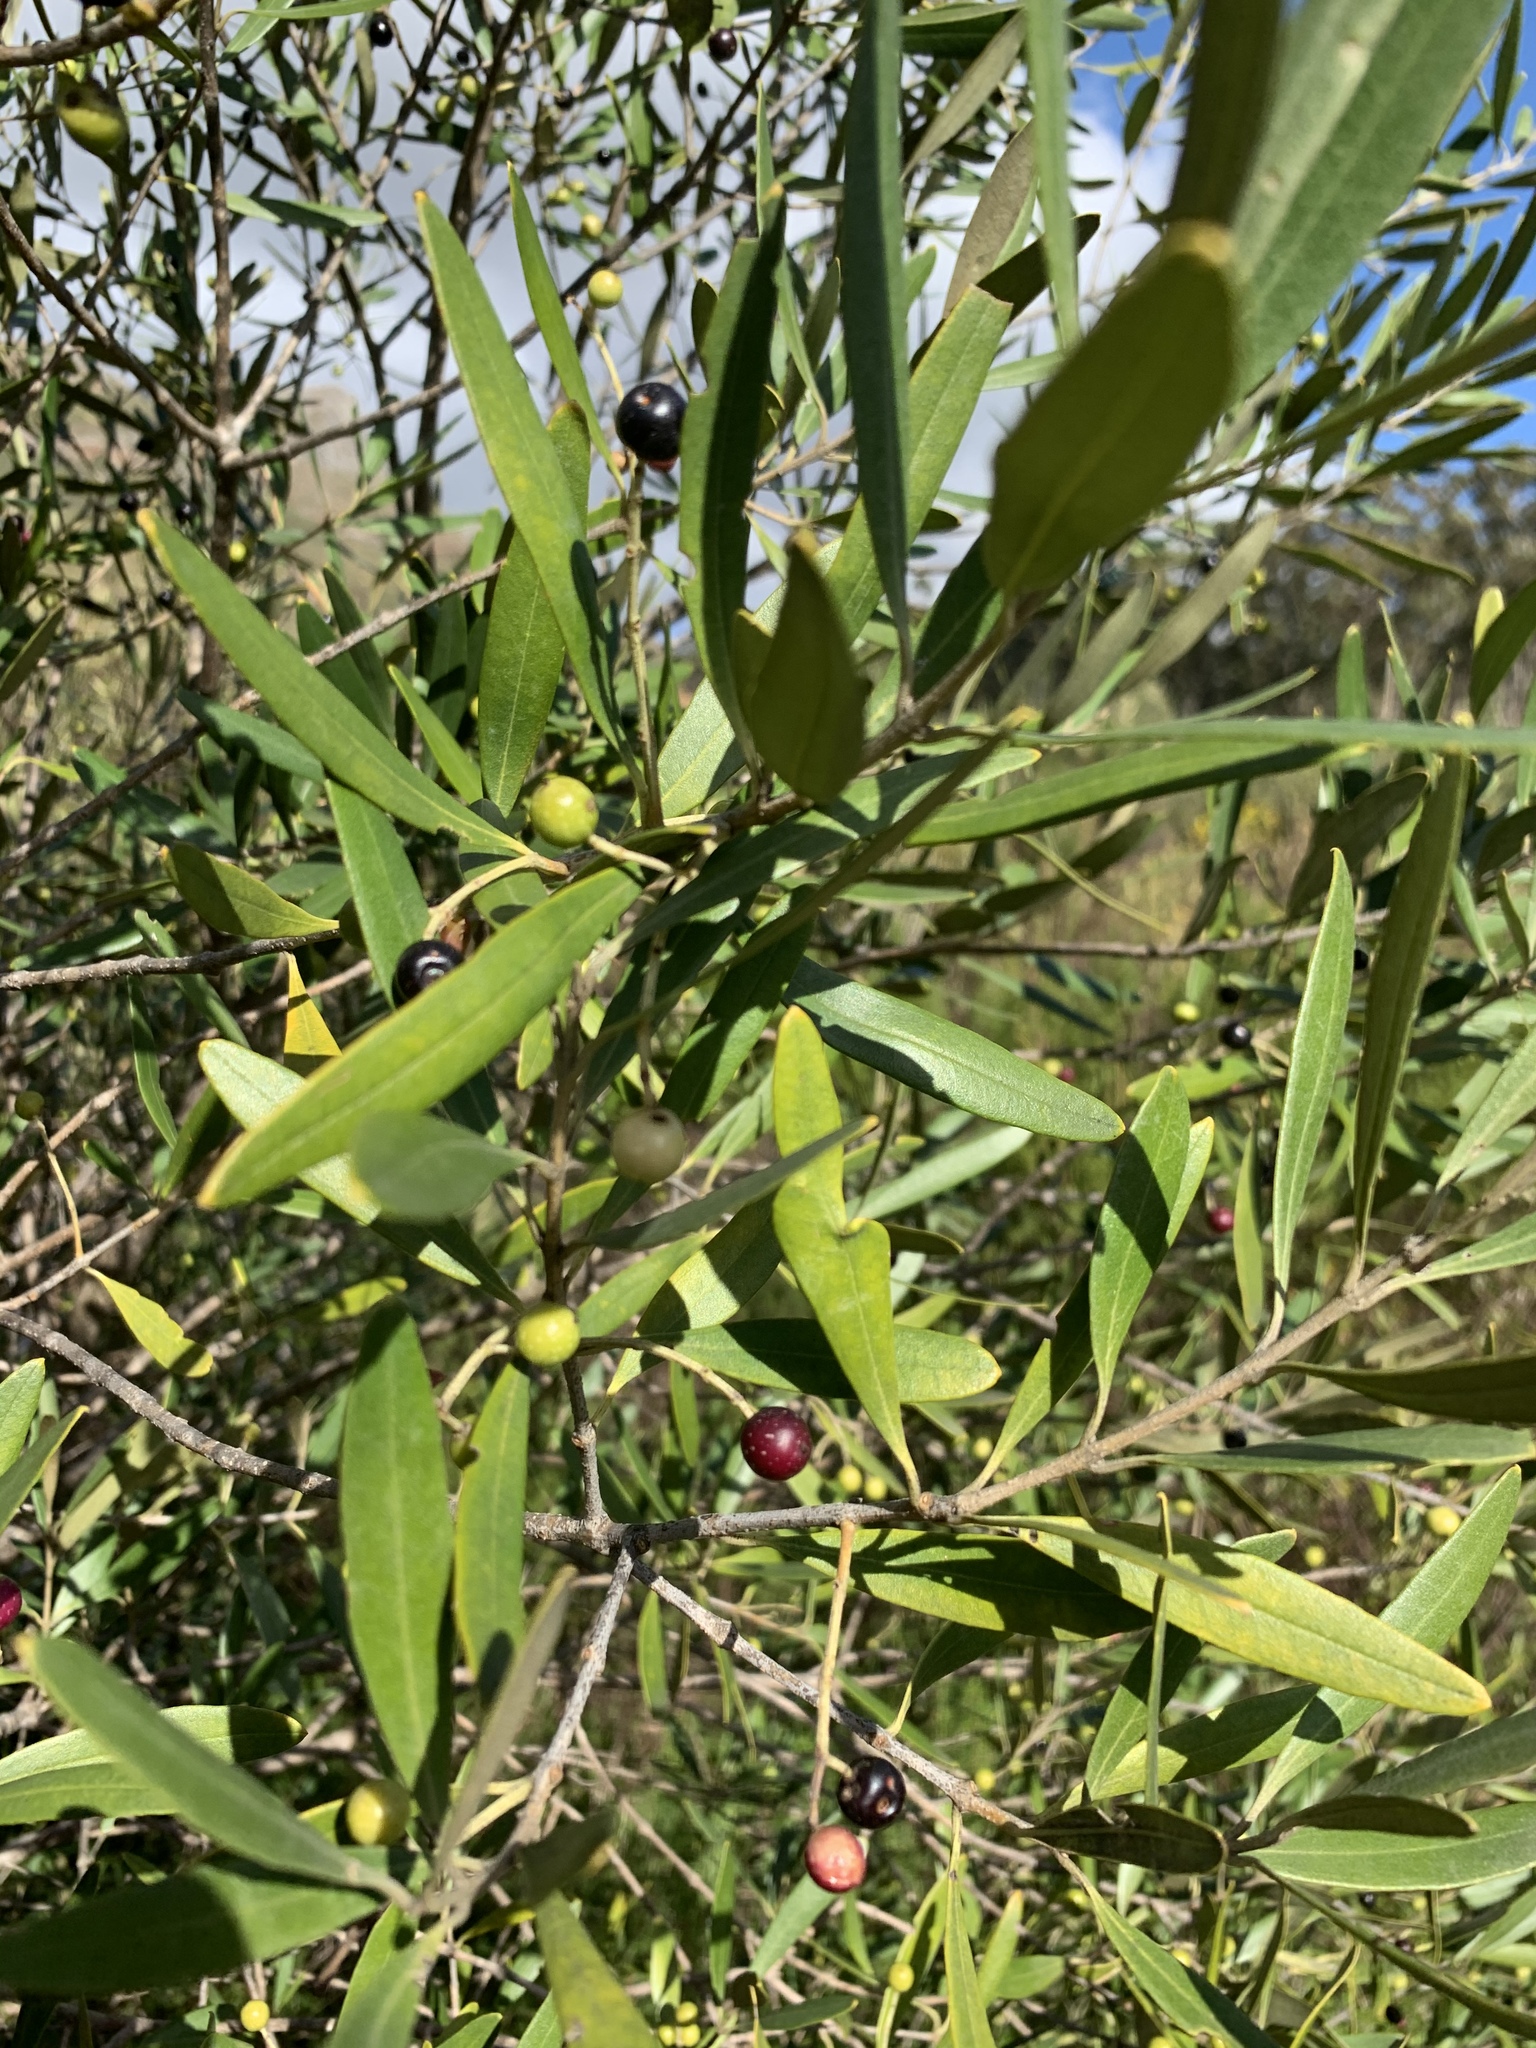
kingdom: Plantae
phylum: Tracheophyta
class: Magnoliopsida
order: Lamiales
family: Oleaceae
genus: Olea
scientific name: Olea europaea
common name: Olive
